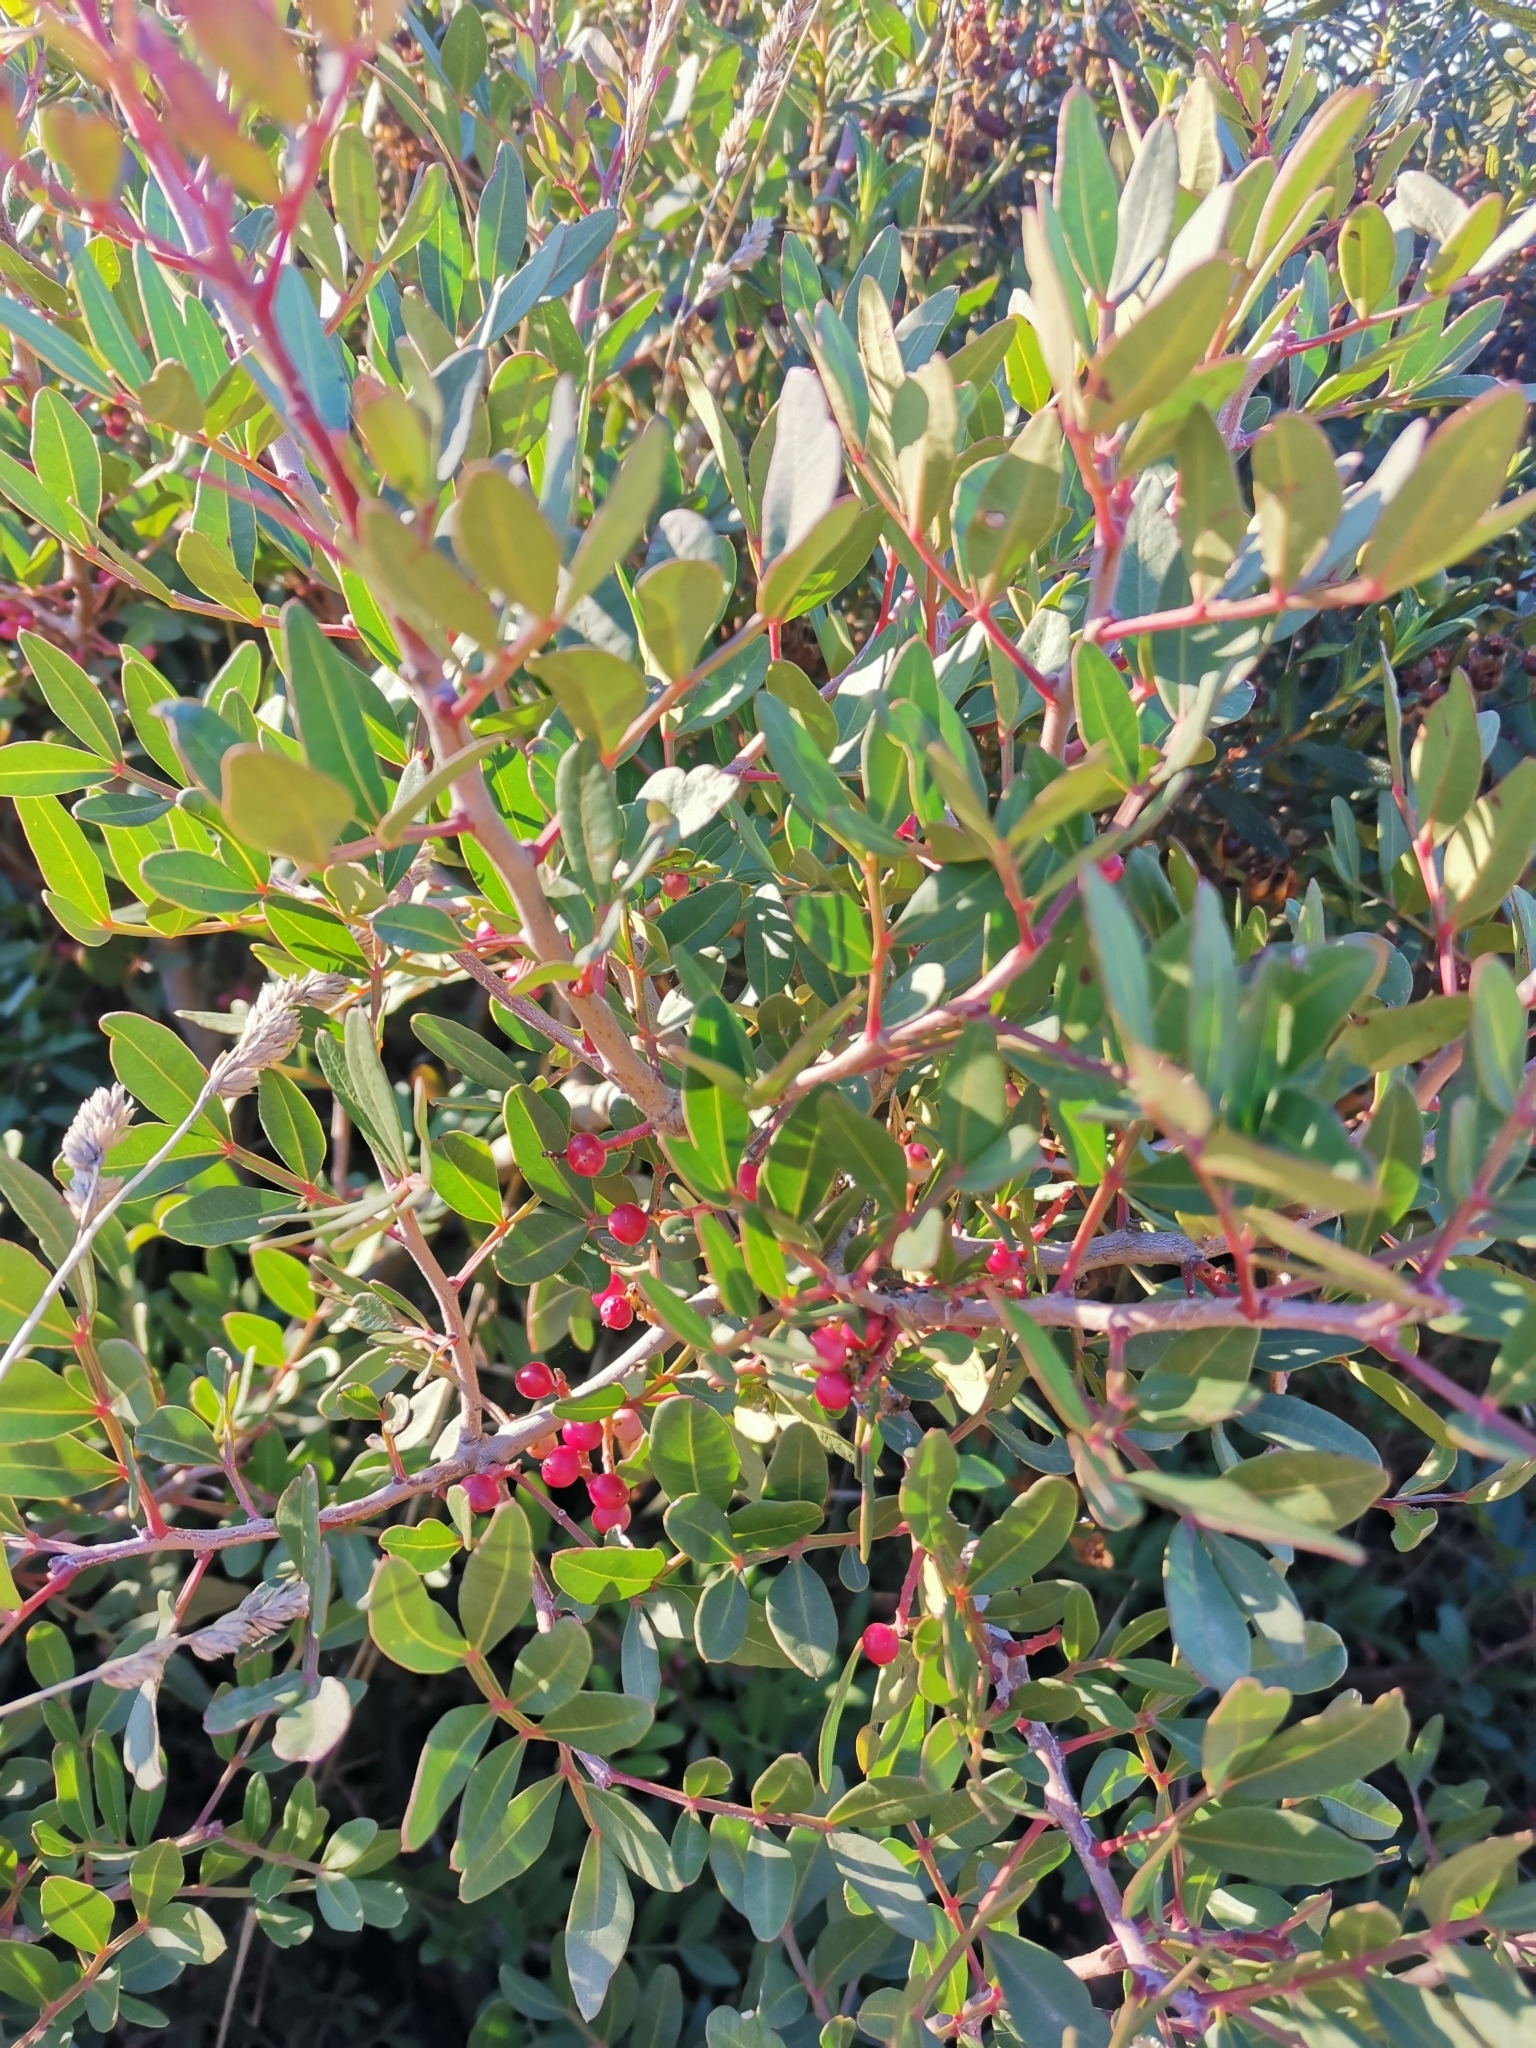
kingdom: Plantae
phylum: Tracheophyta
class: Magnoliopsida
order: Sapindales
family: Anacardiaceae
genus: Pistacia
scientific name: Pistacia lentiscus
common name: Lentisk
